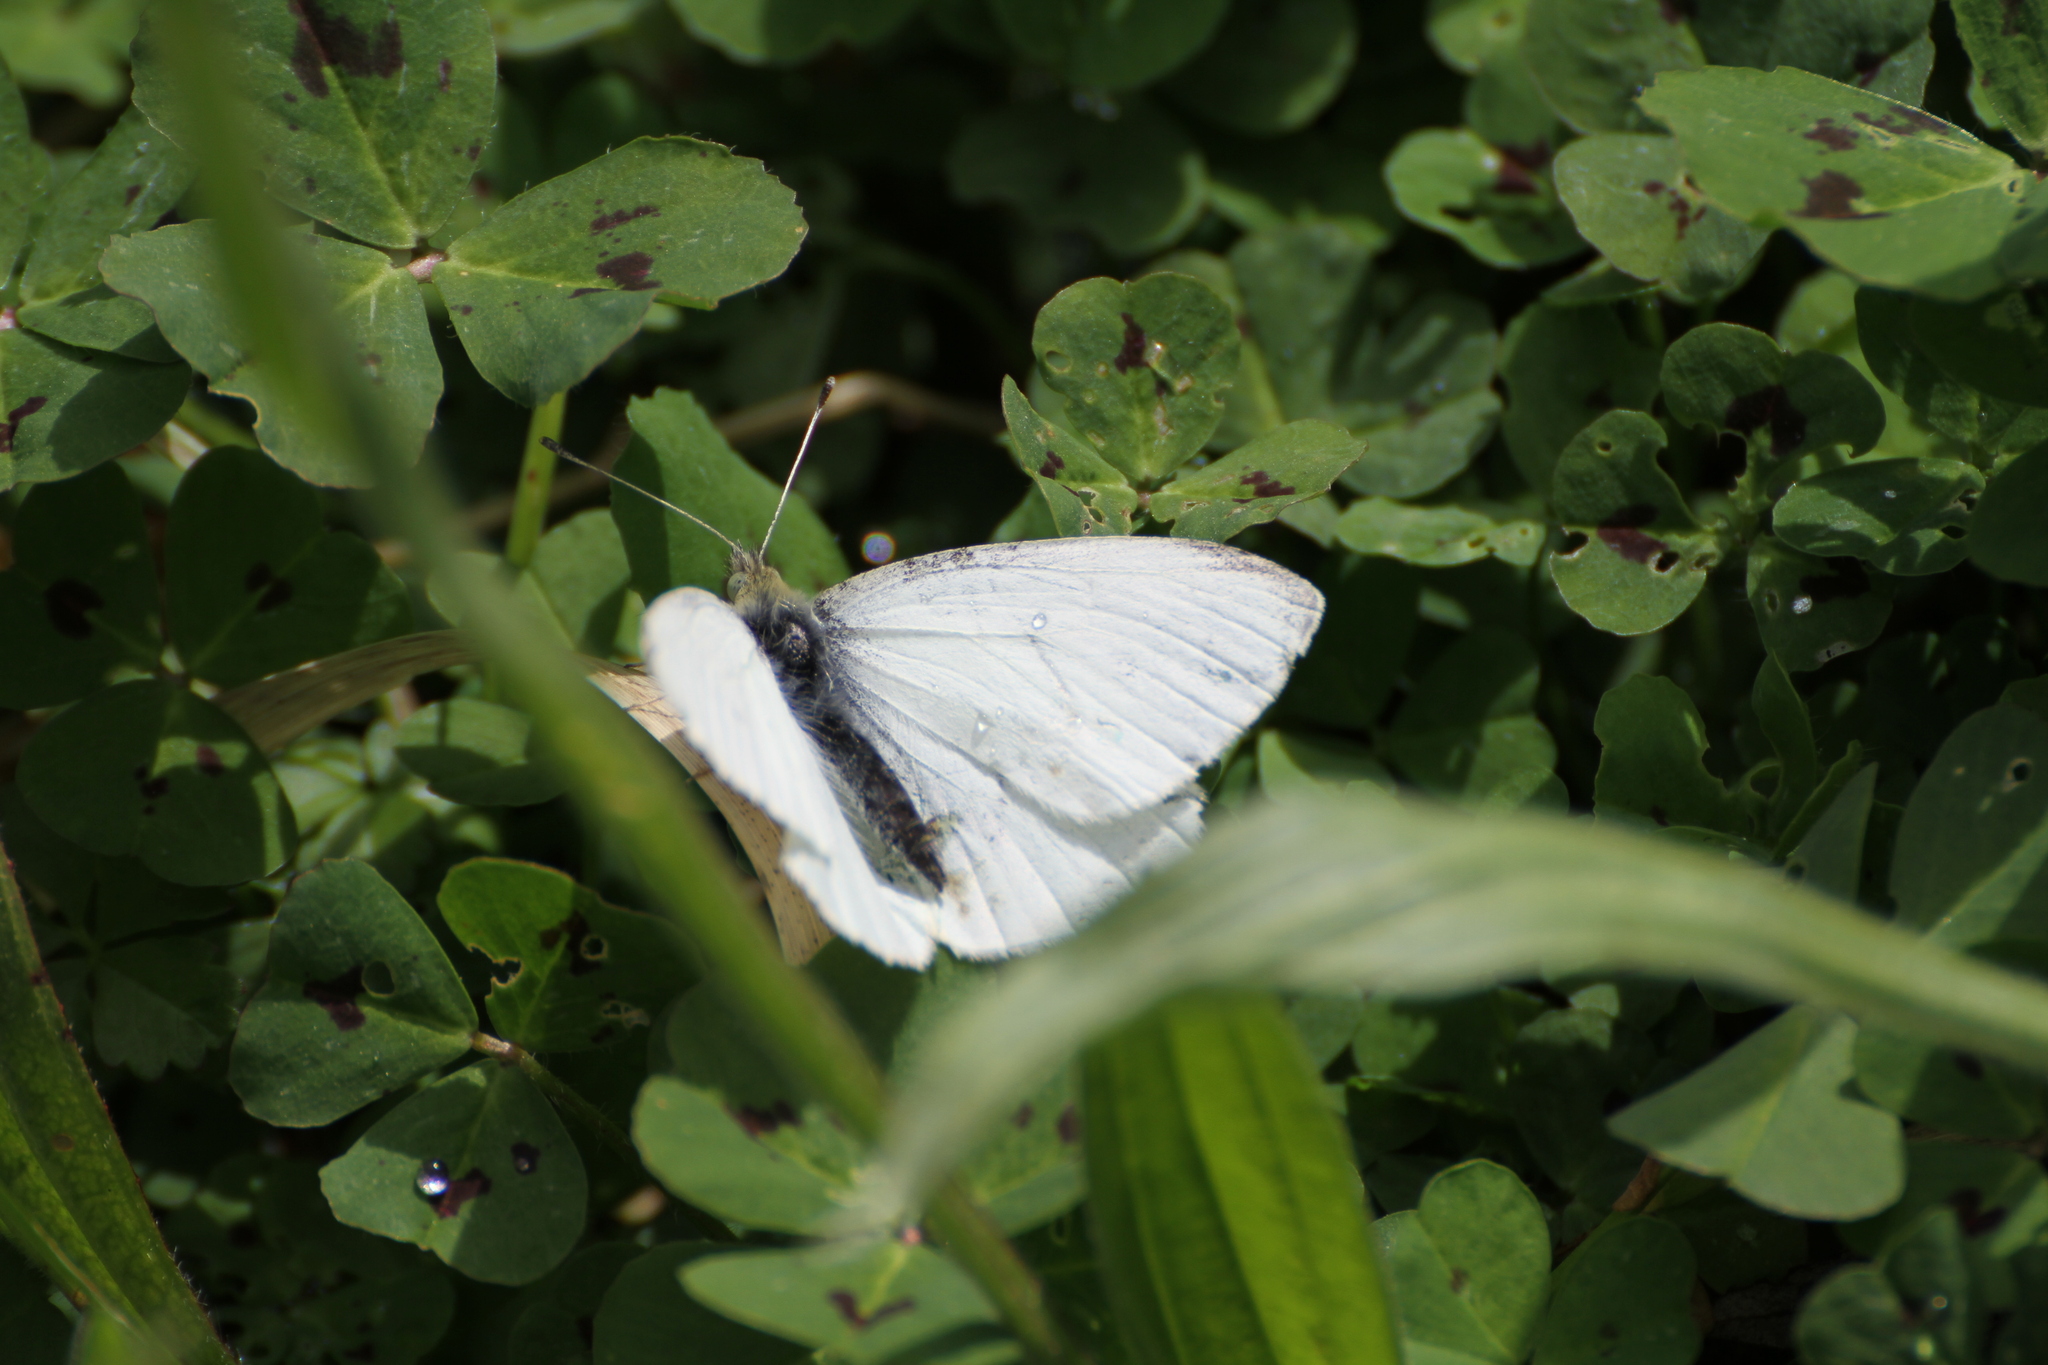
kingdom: Animalia
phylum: Arthropoda
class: Insecta
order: Lepidoptera
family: Pieridae
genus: Pieris
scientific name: Pieris rapae
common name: Small white
